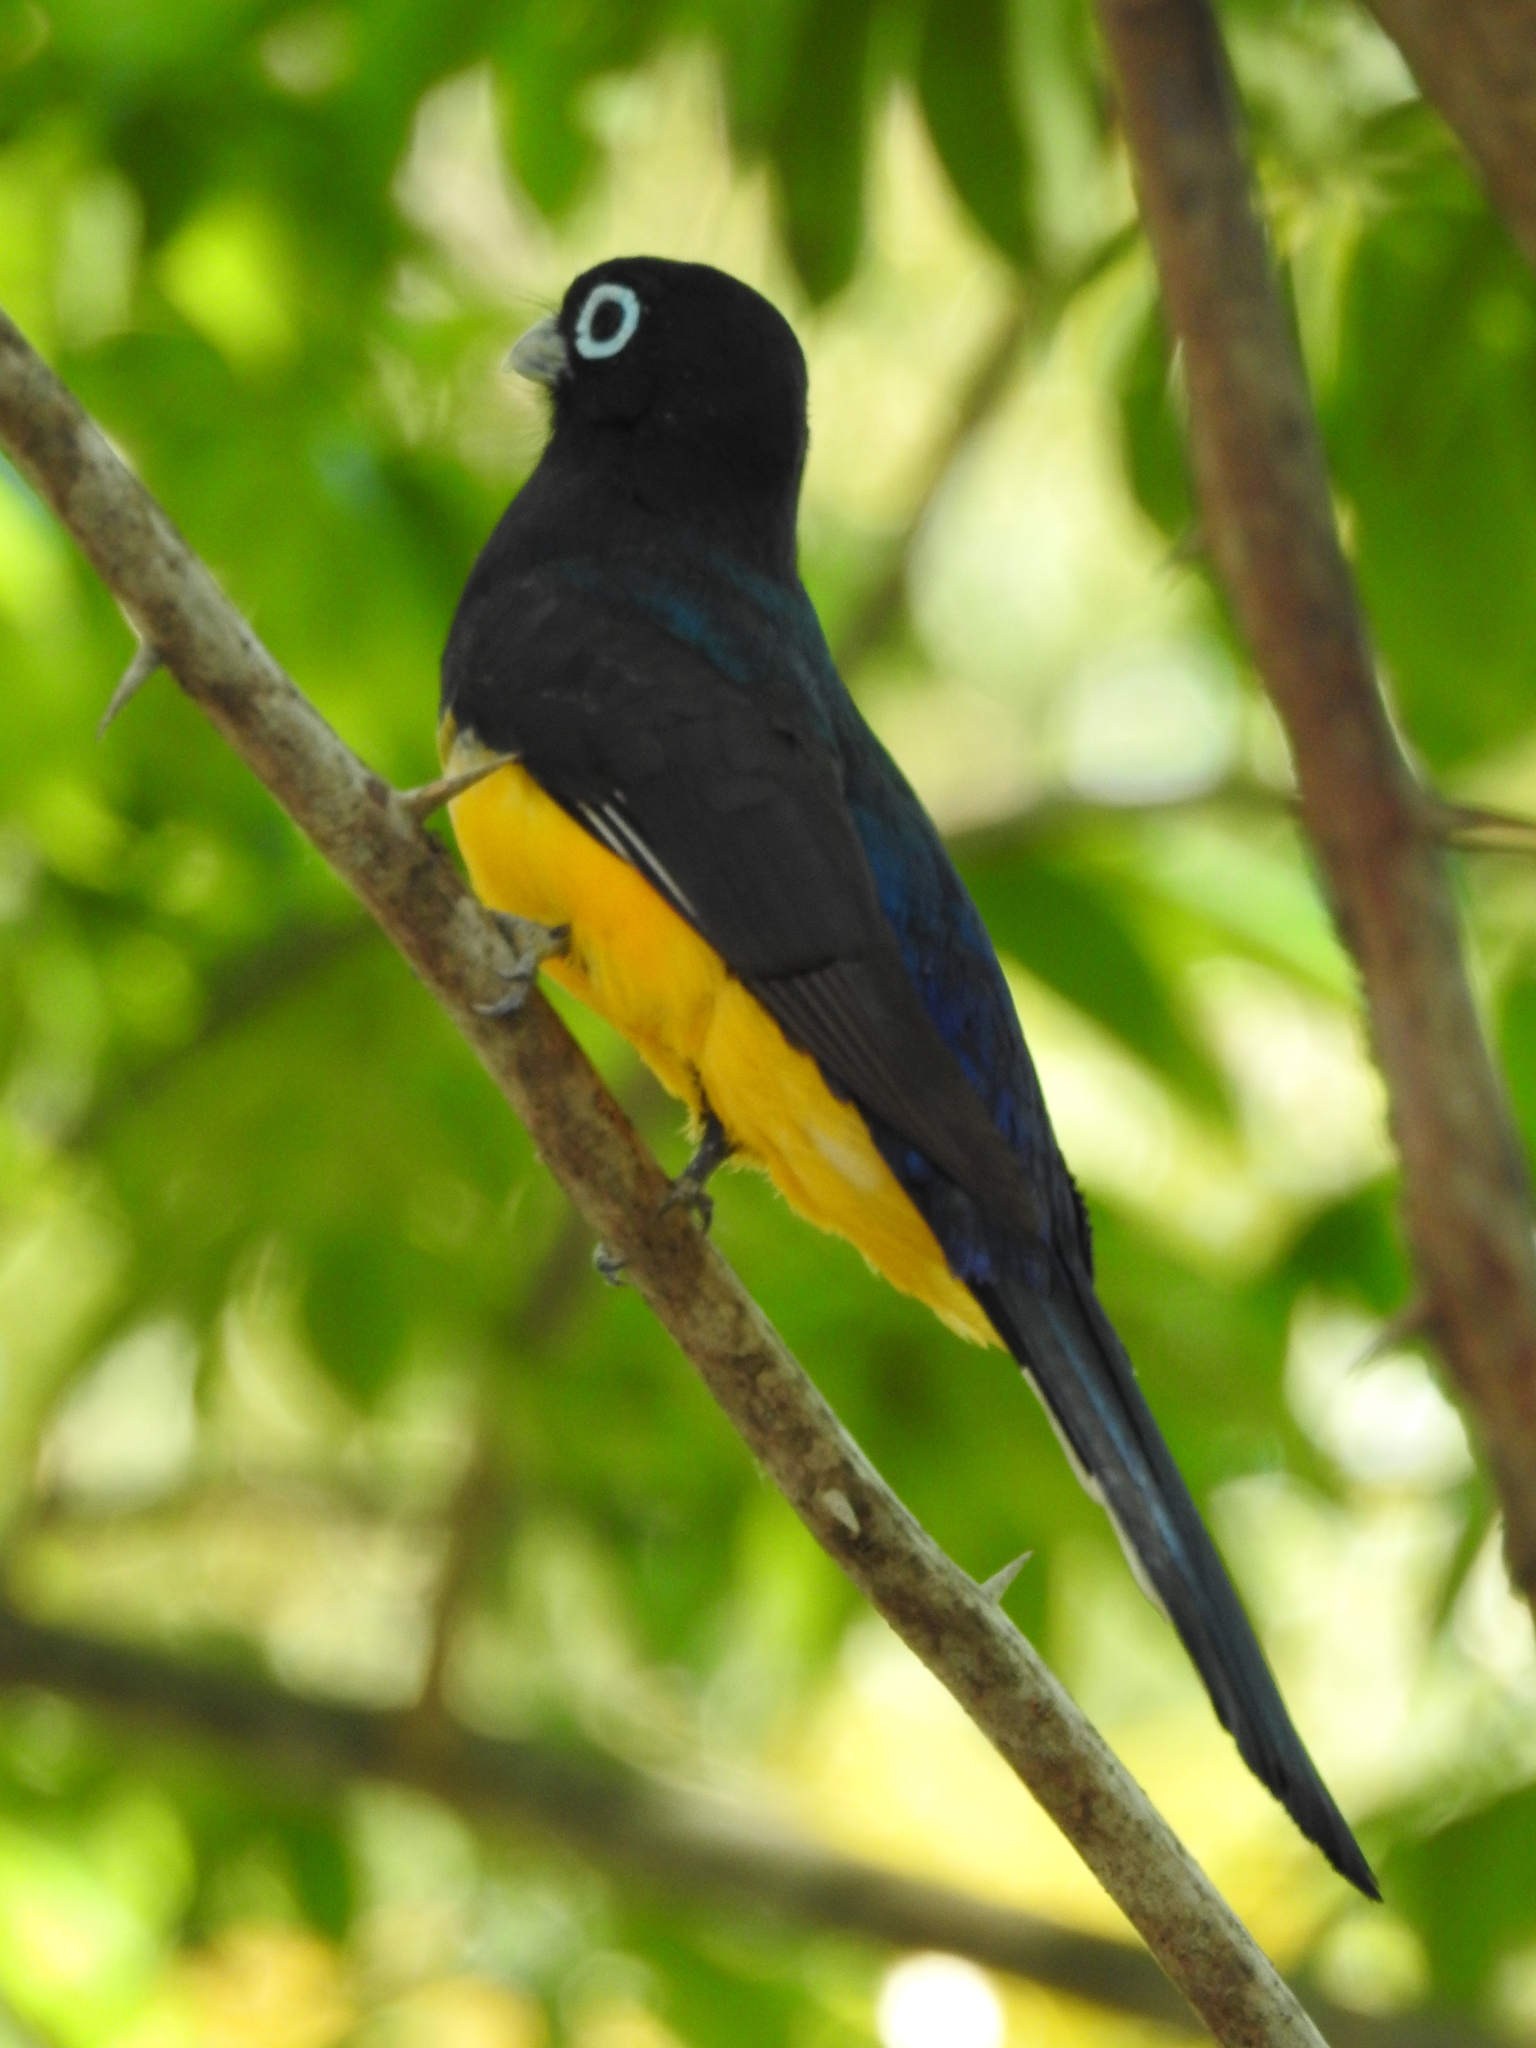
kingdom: Animalia
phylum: Chordata
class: Aves
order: Trogoniformes
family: Trogonidae
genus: Trogon
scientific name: Trogon melanocephalus
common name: Black-headed trogon
